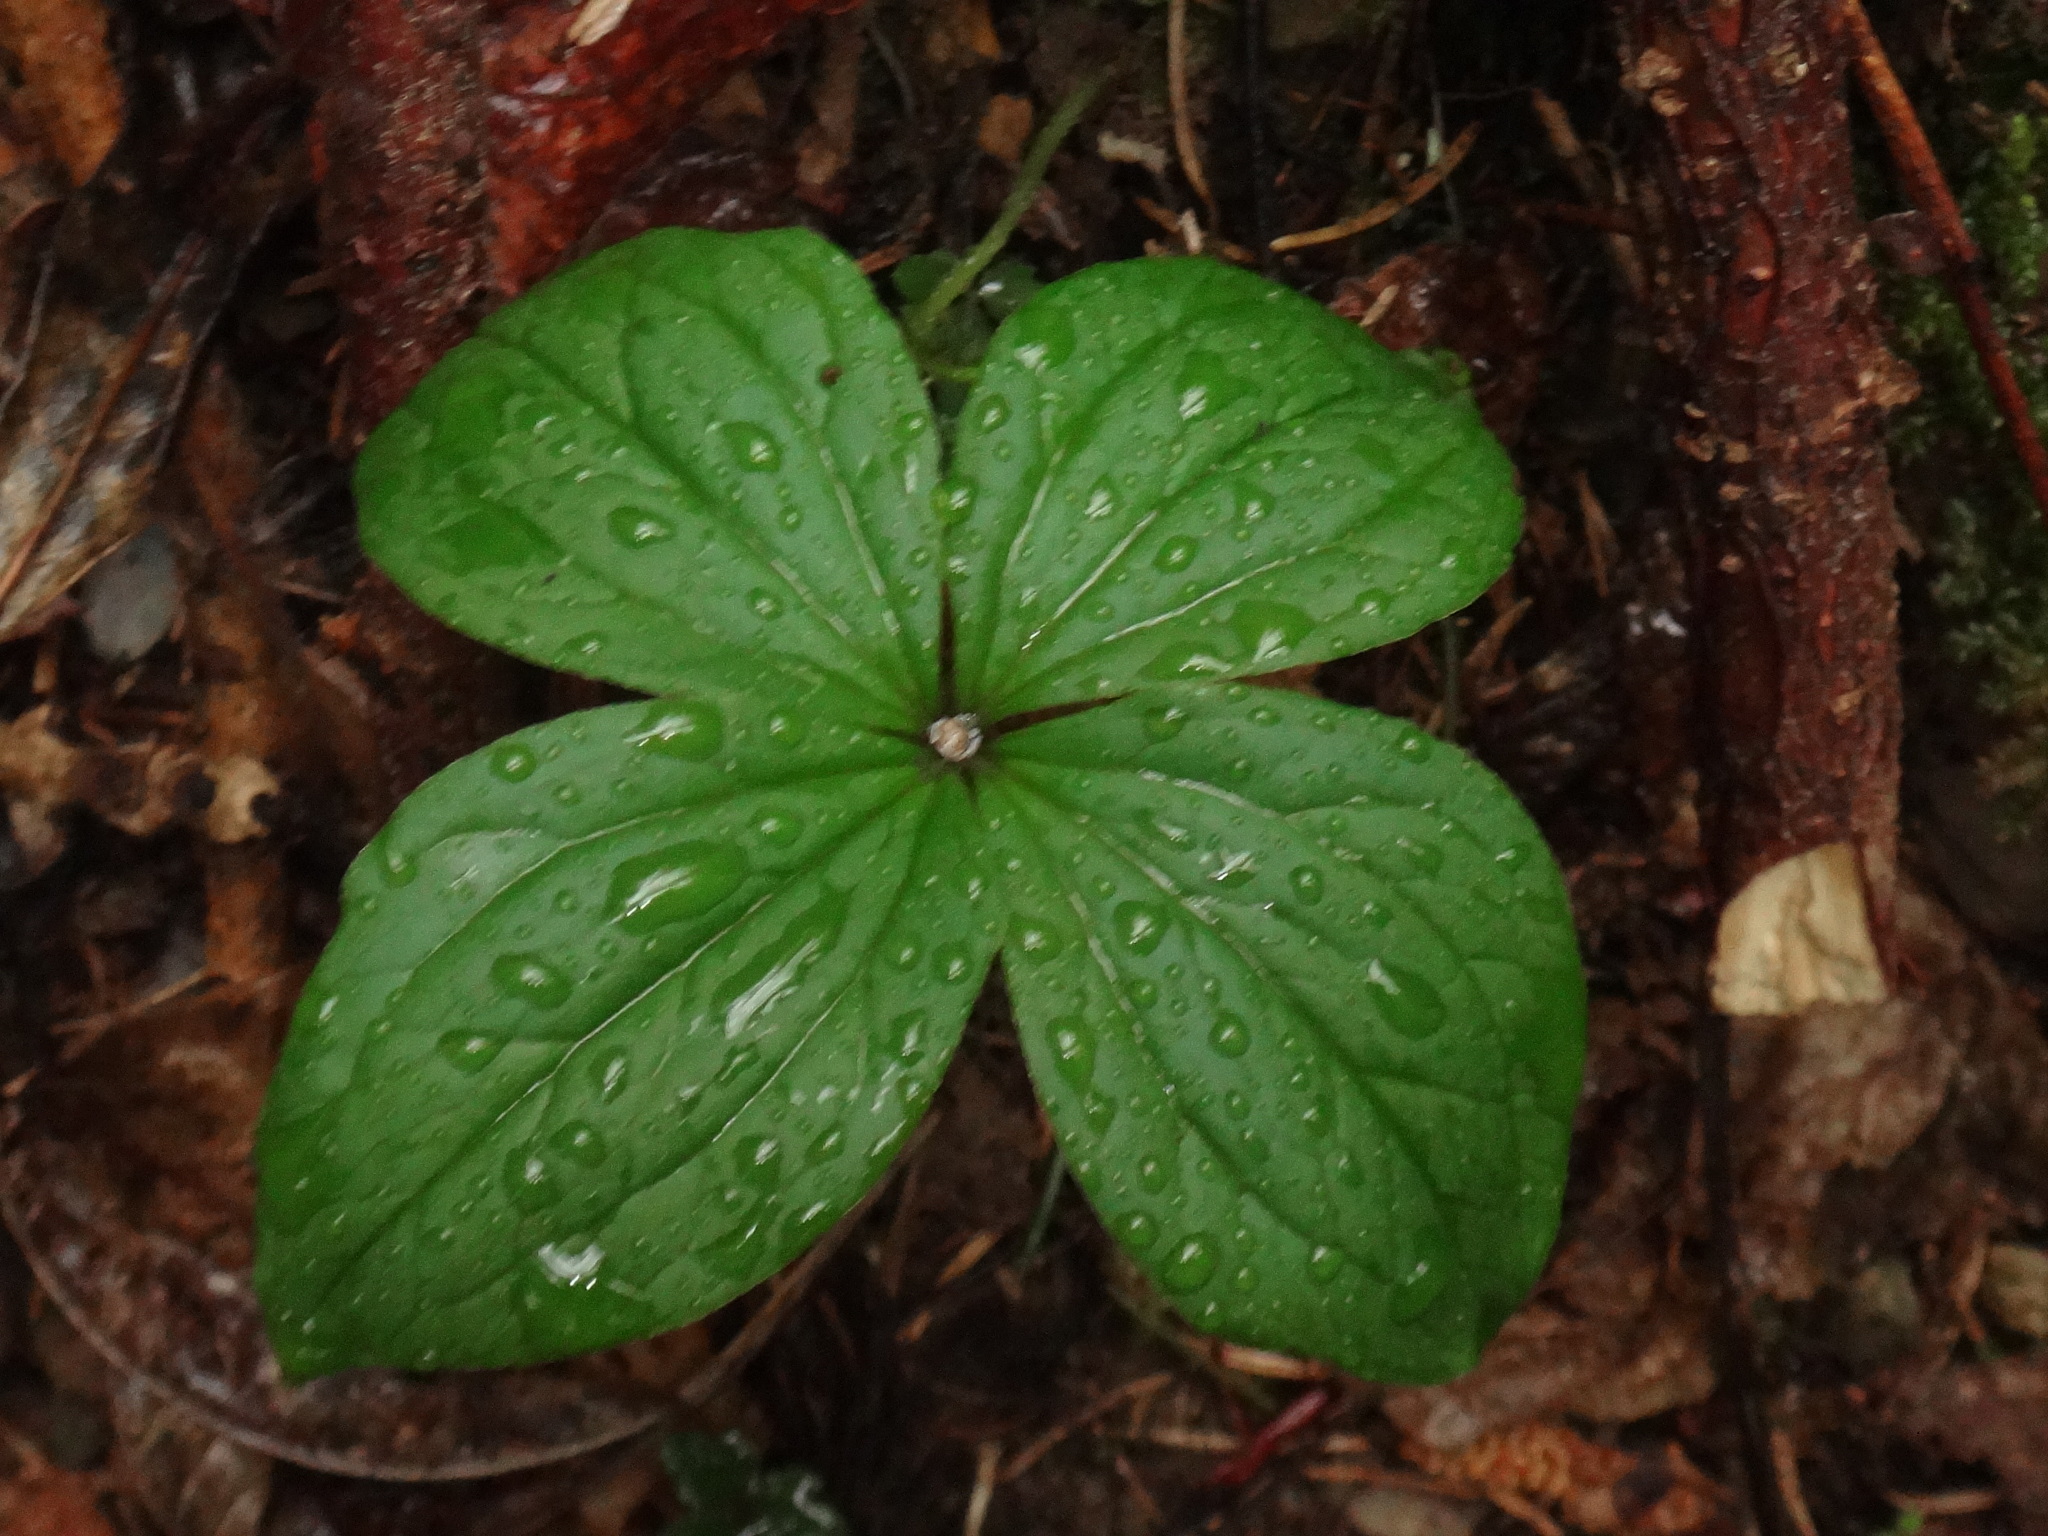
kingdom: Plantae
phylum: Tracheophyta
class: Liliopsida
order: Liliales
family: Melanthiaceae
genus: Paris
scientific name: Paris quadrifolia
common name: Herb-paris
